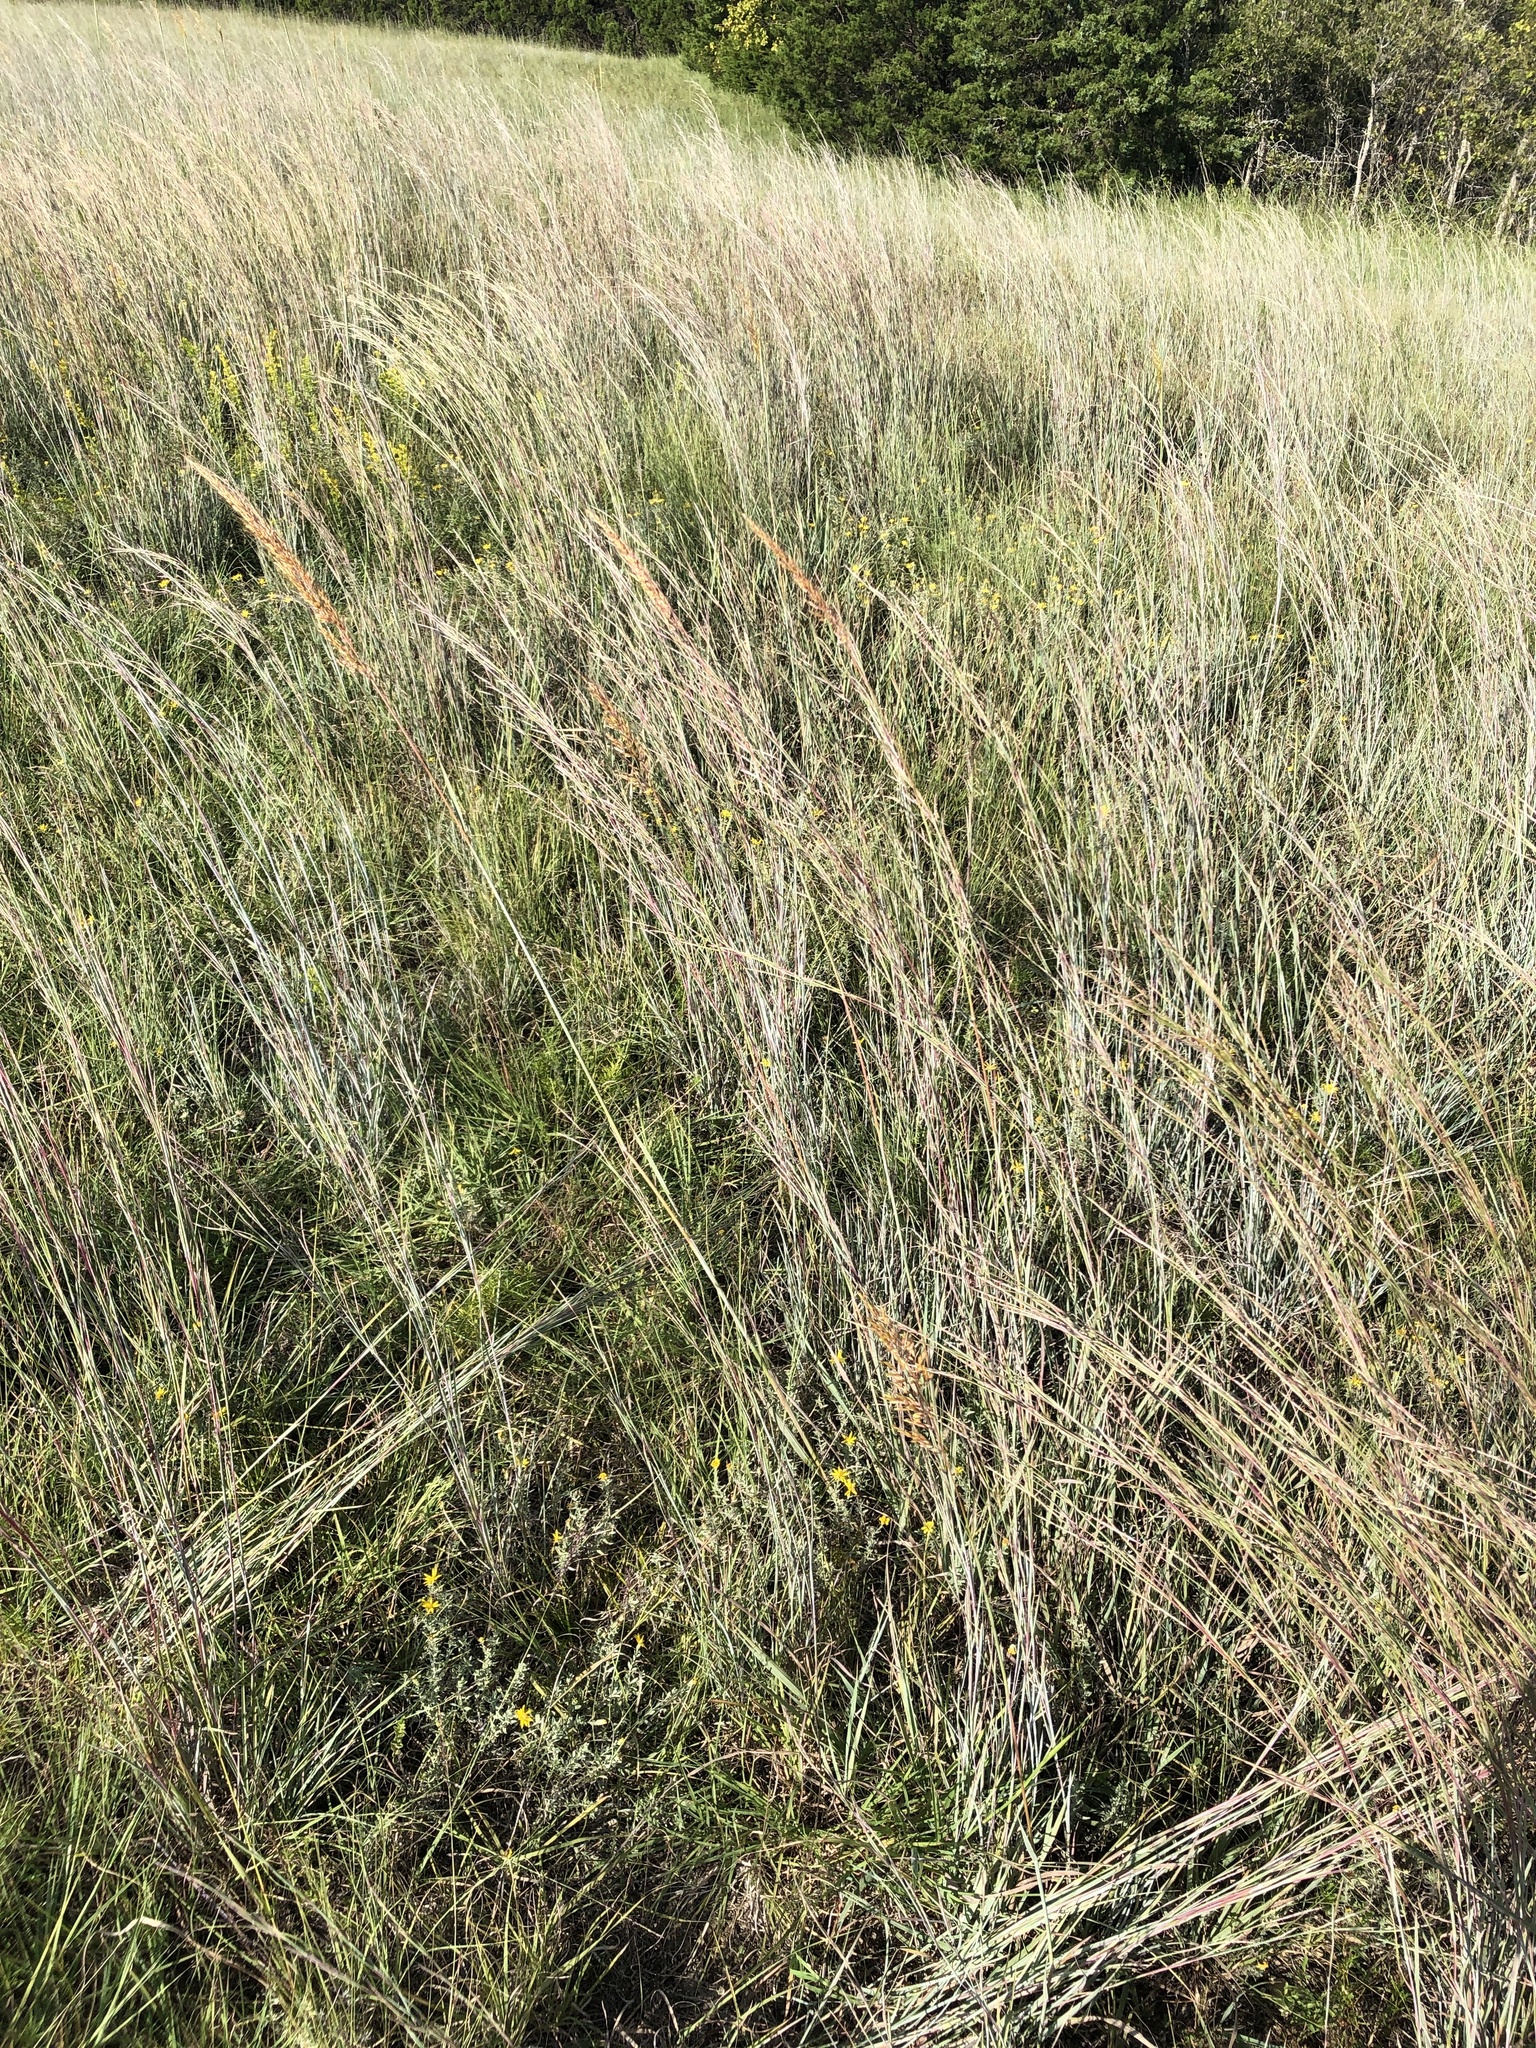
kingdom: Plantae
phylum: Tracheophyta
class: Liliopsida
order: Poales
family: Poaceae
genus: Sorghastrum
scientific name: Sorghastrum nutans
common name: Indian grass
